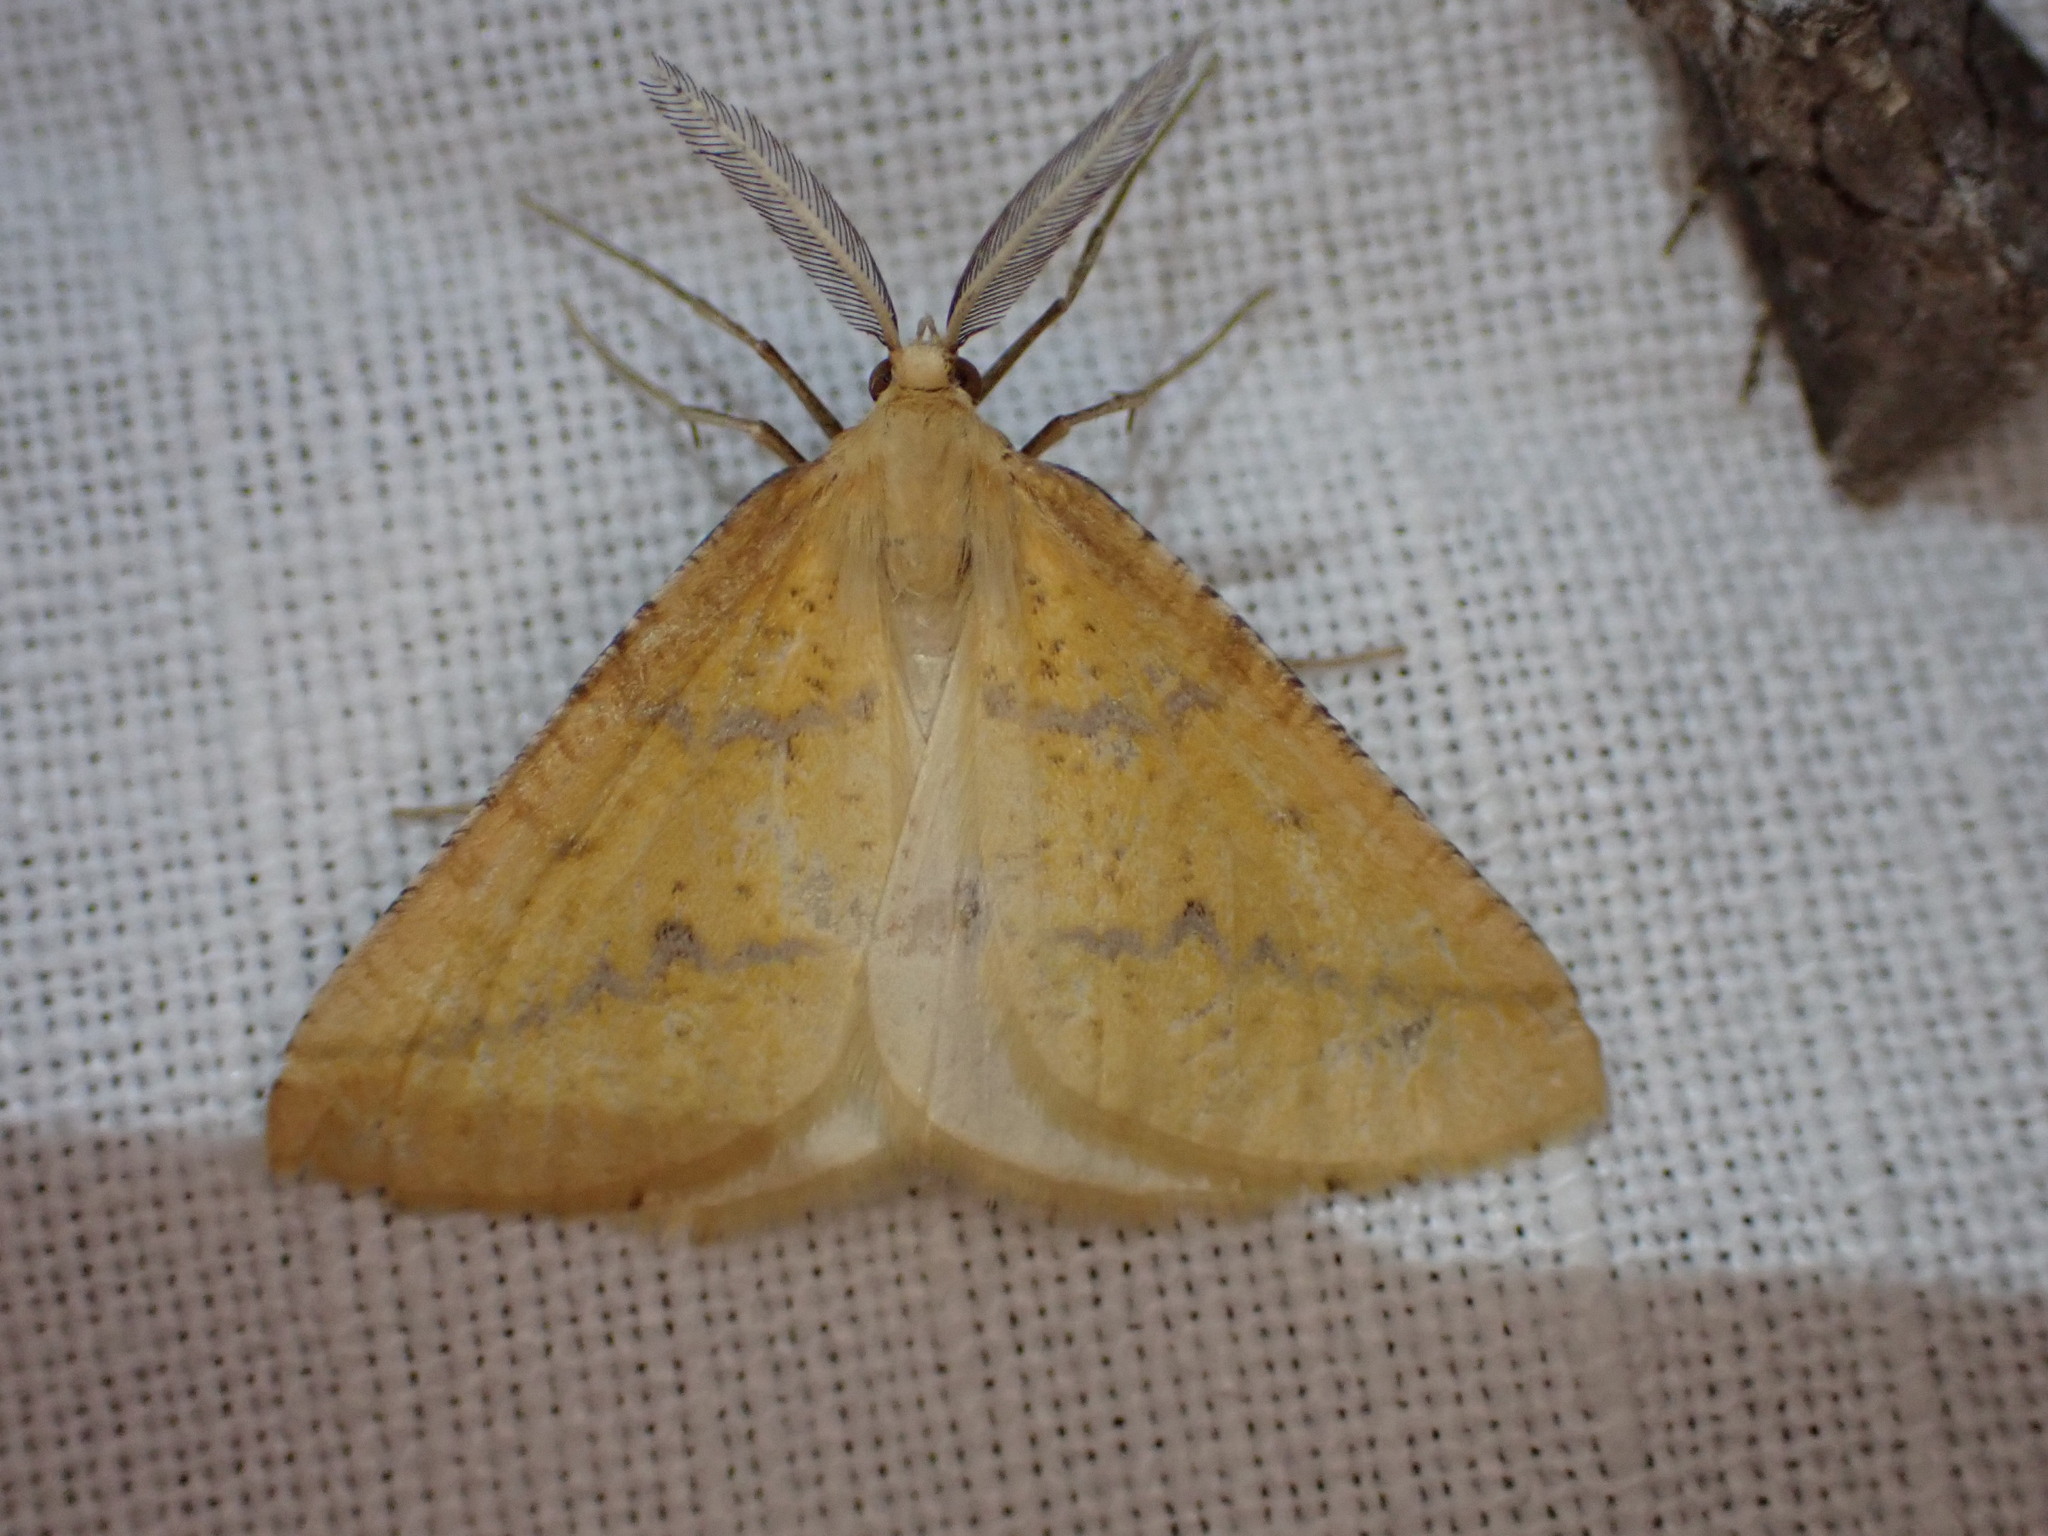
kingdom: Animalia
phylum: Arthropoda
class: Insecta
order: Lepidoptera
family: Geometridae
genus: Aspitates
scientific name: Aspitates ochrearia
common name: Yellow belle
